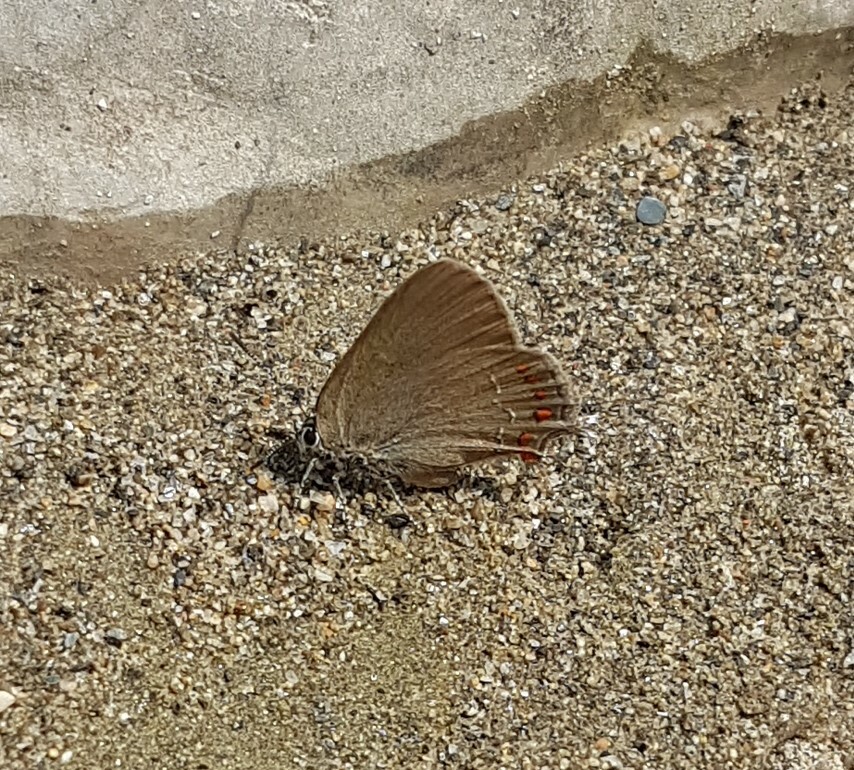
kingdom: Animalia
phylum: Arthropoda
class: Insecta
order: Lepidoptera
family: Lycaenidae
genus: Fixsenia
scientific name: Fixsenia esculi
